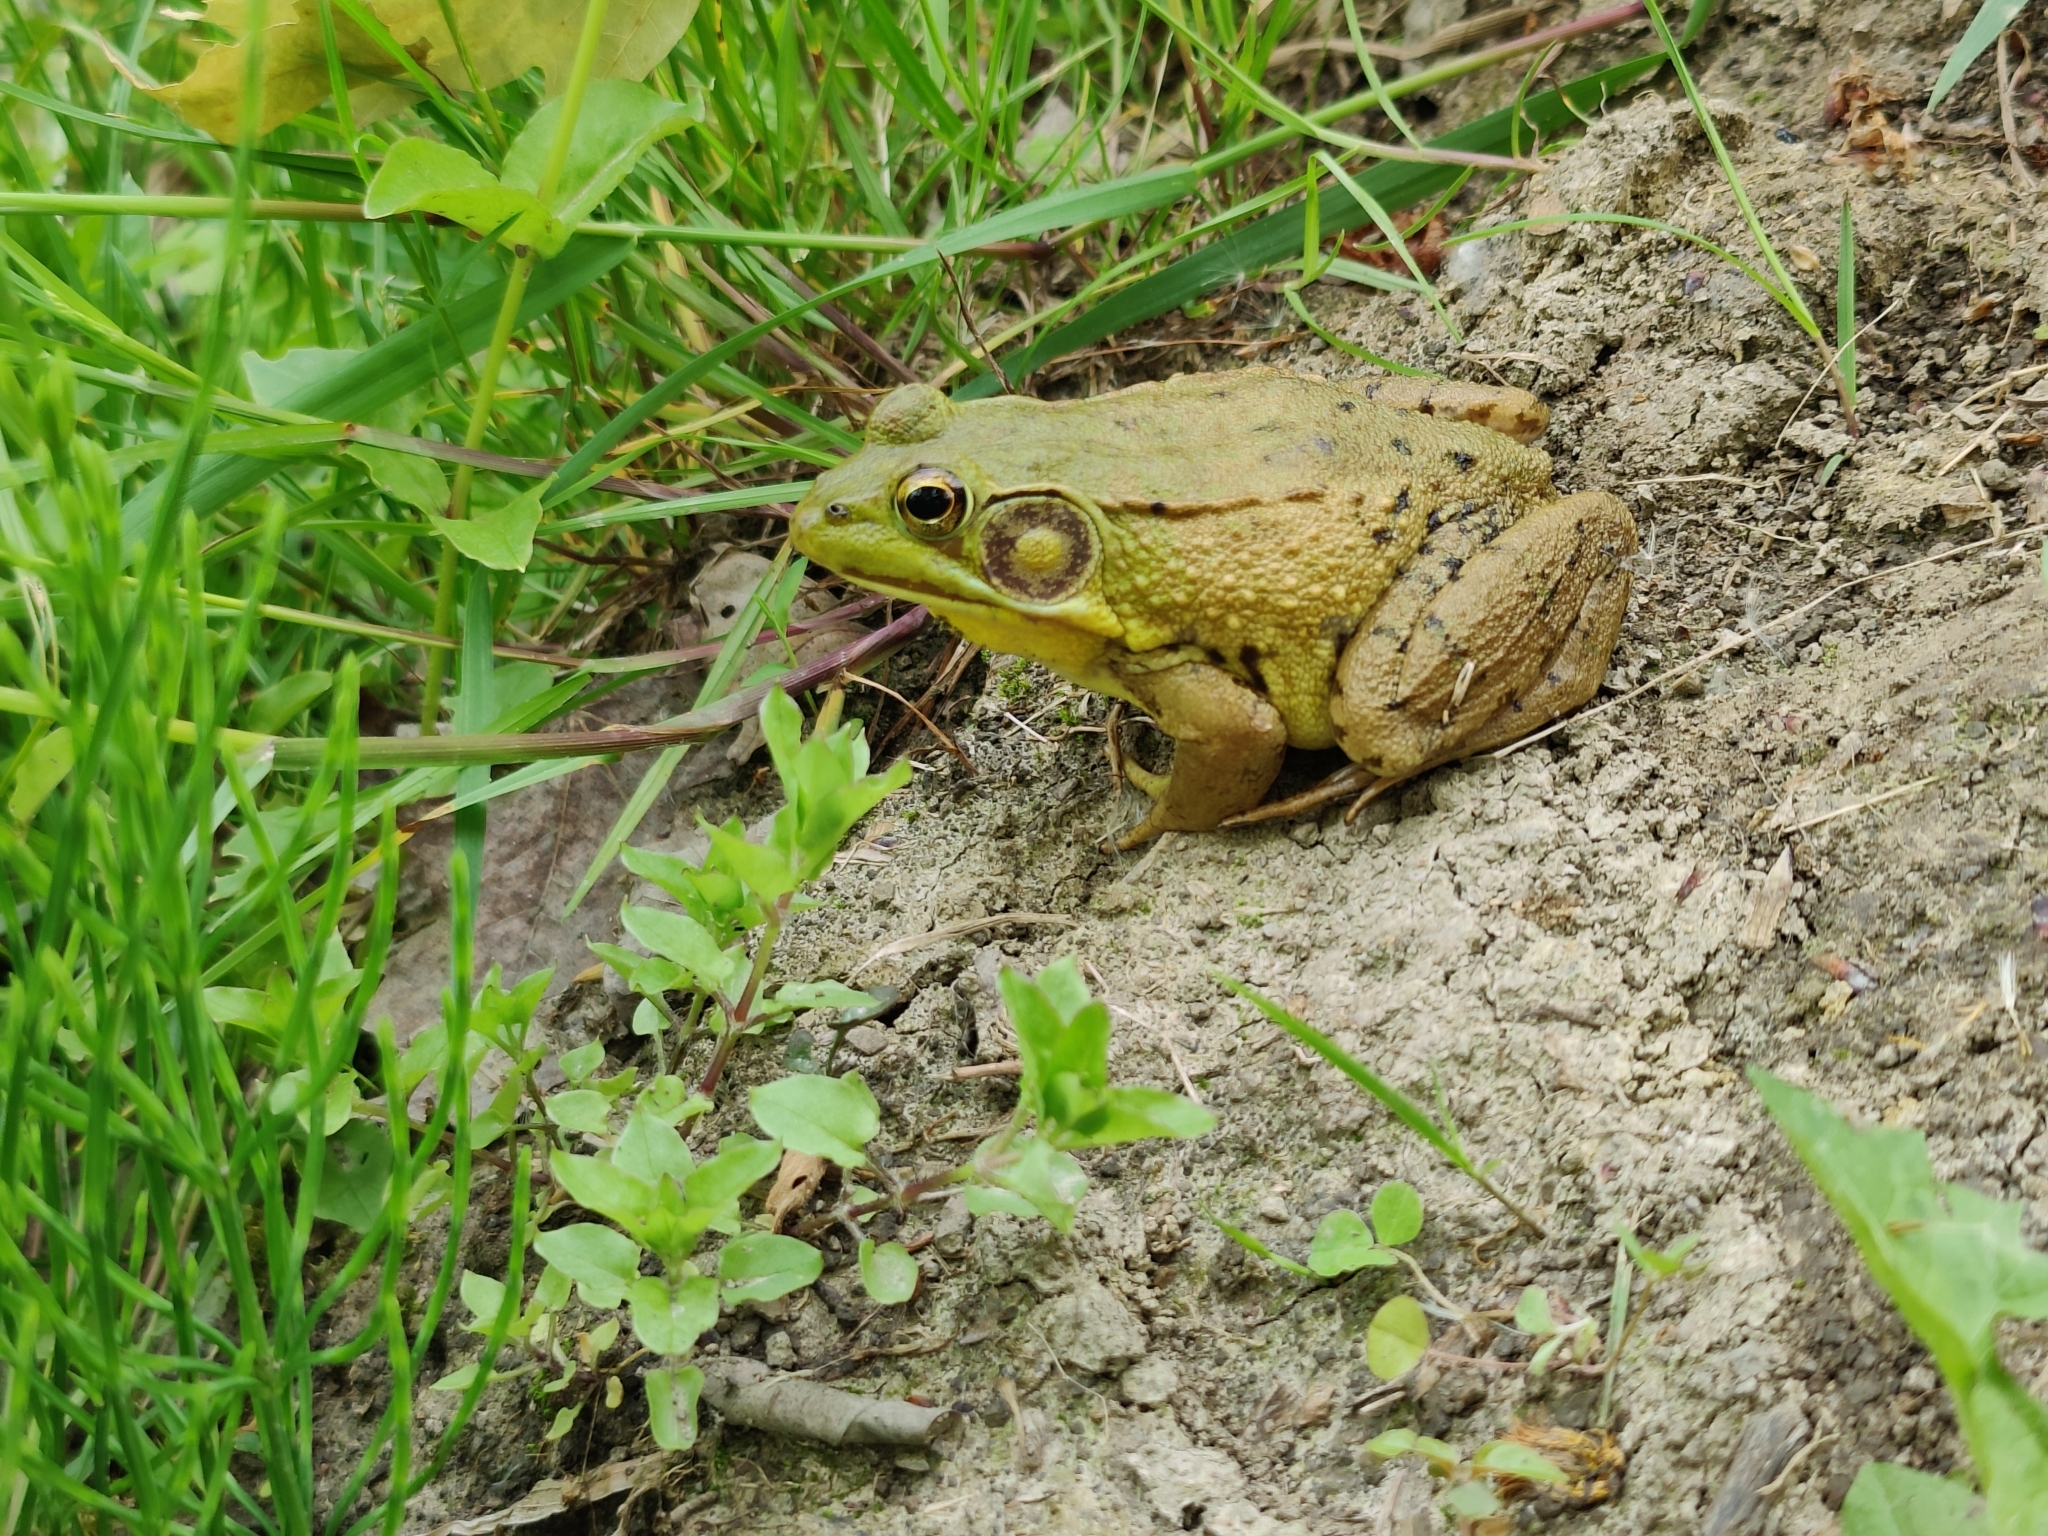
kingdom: Animalia
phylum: Chordata
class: Amphibia
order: Anura
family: Ranidae
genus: Lithobates
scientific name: Lithobates clamitans
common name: Green frog
